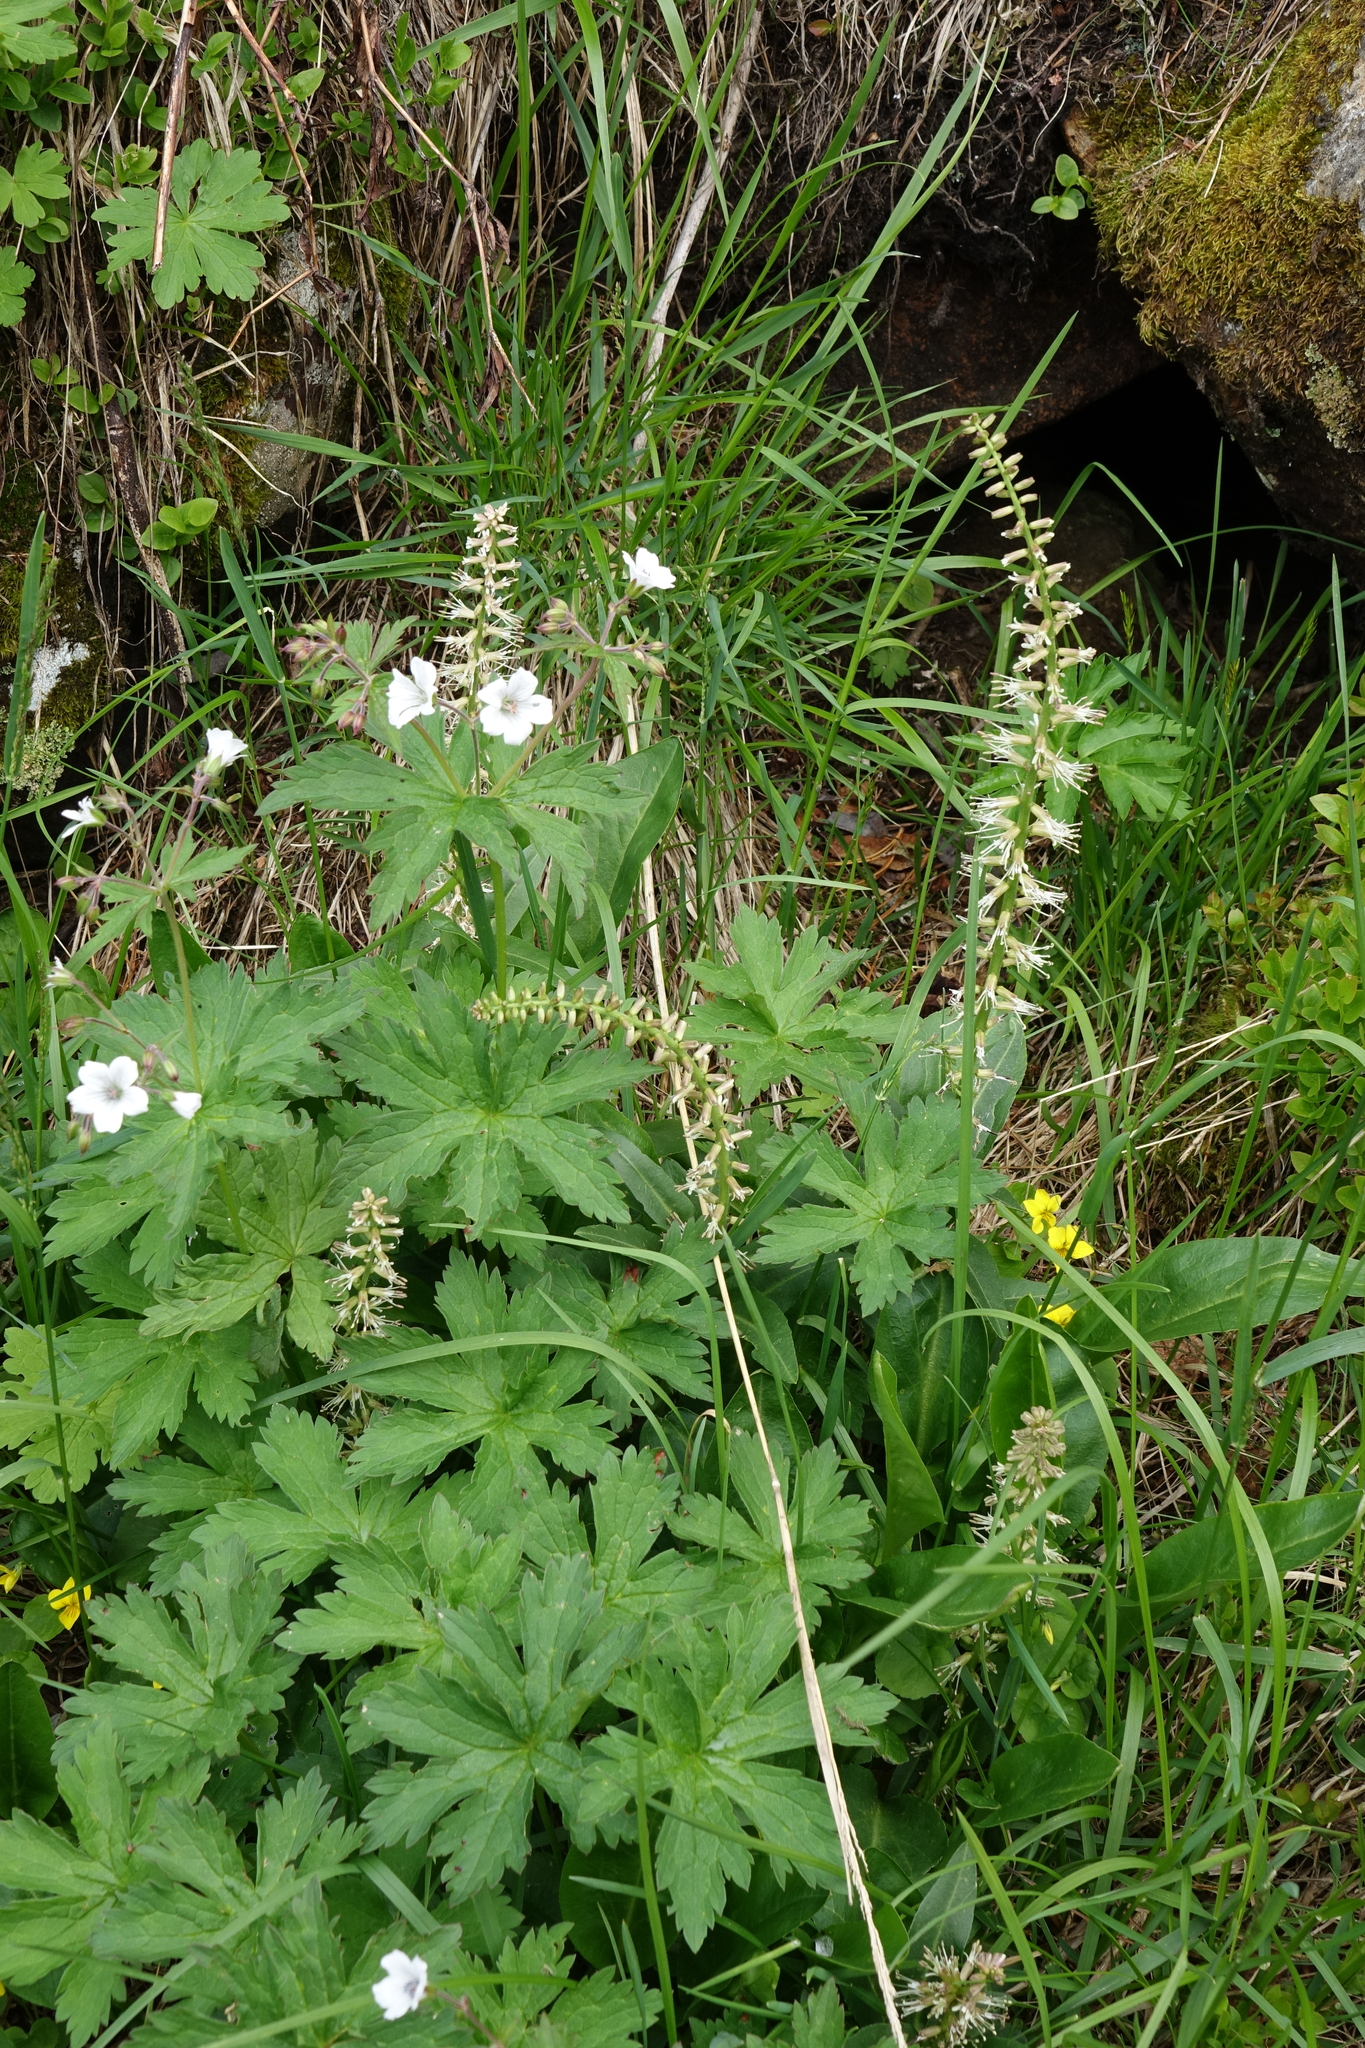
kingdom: Plantae
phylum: Tracheophyta
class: Magnoliopsida
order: Brassicales
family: Brassicaceae
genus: Macropodium
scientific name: Macropodium nivale
